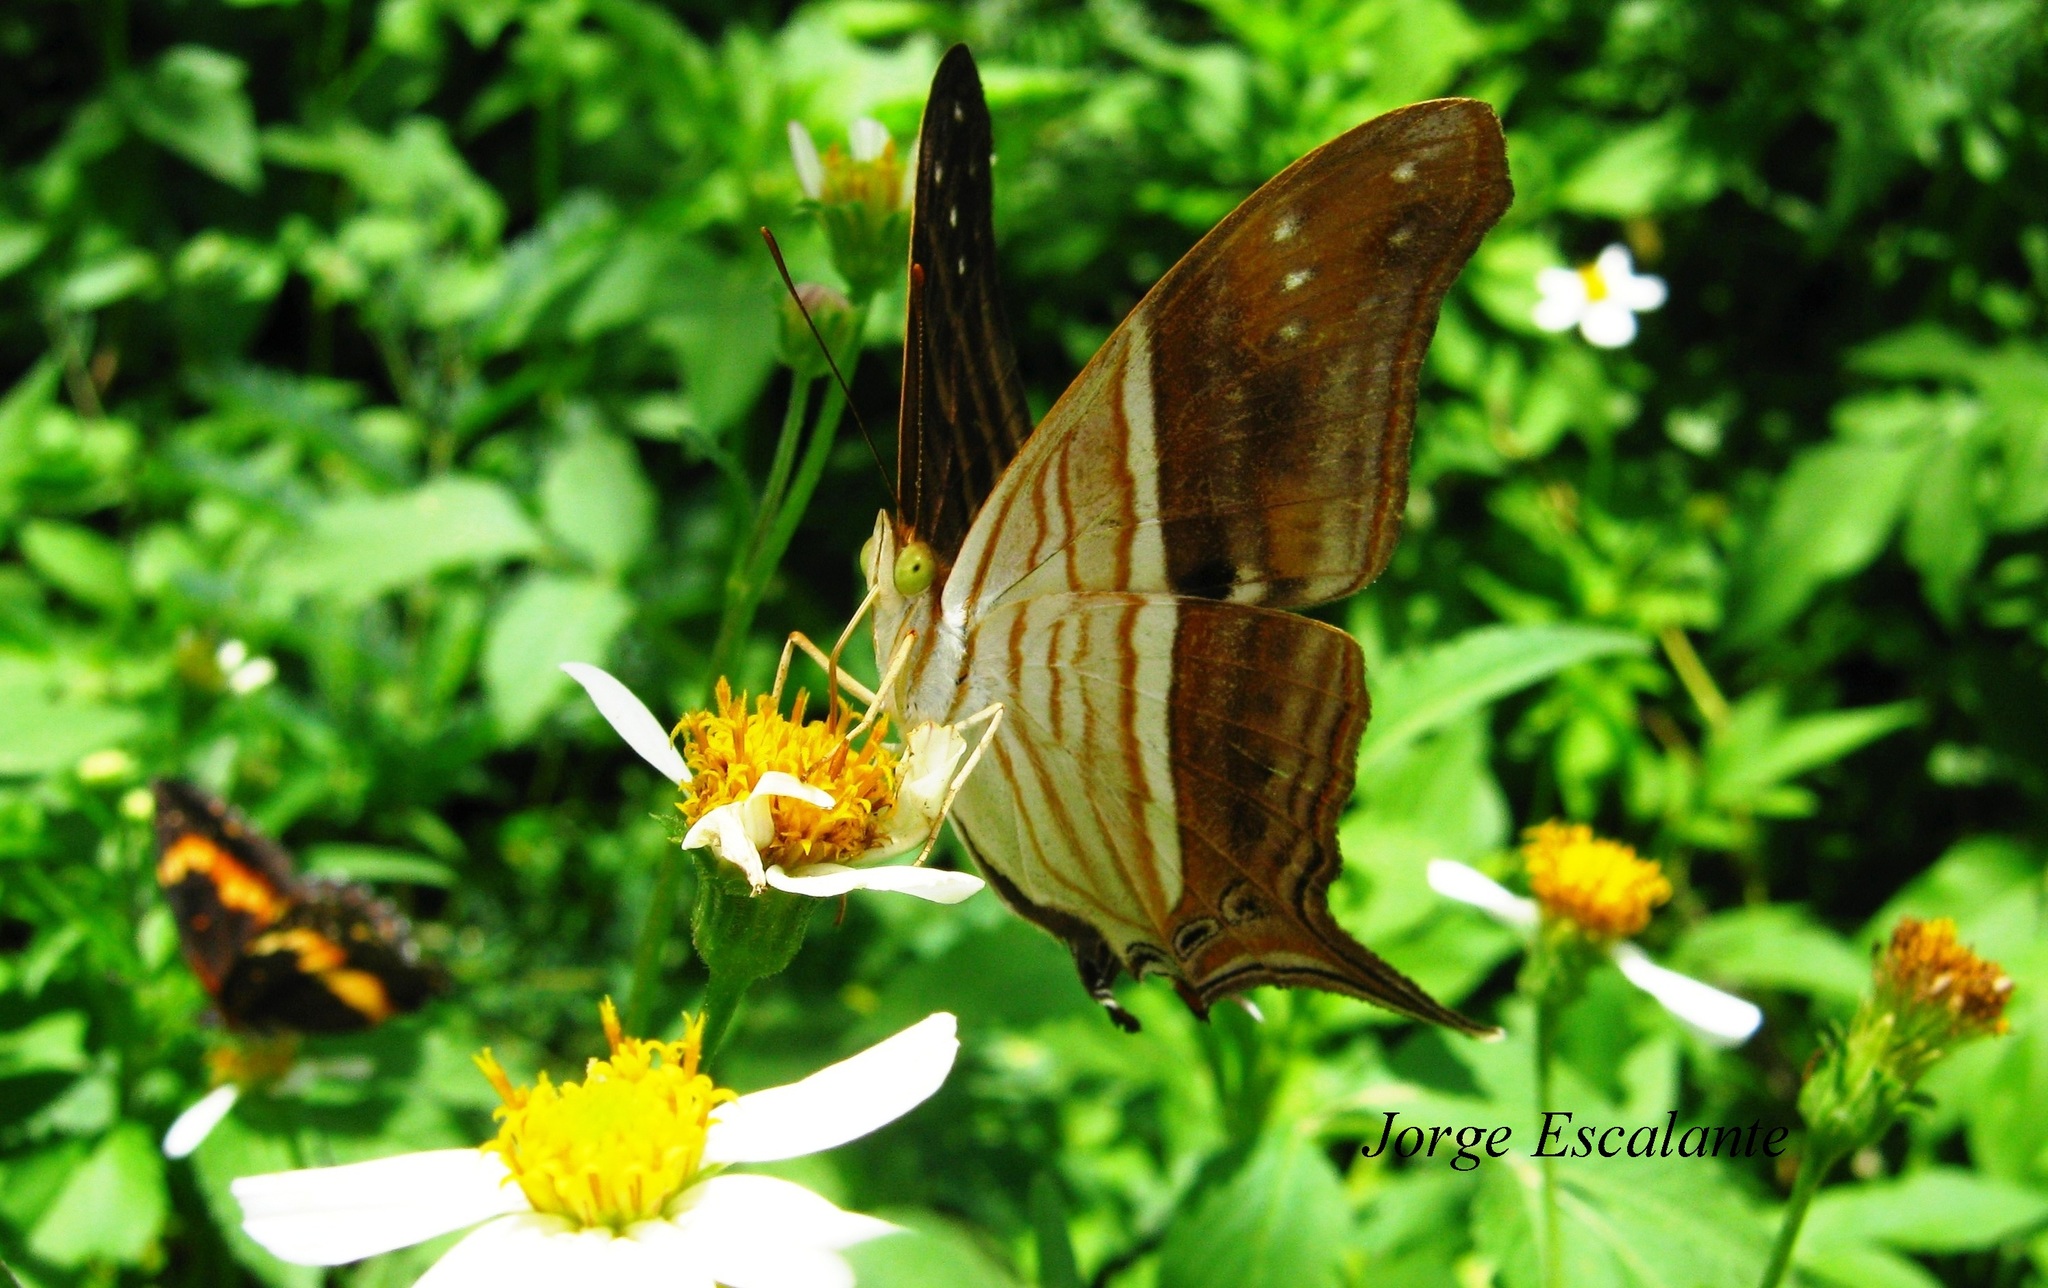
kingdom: Animalia
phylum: Arthropoda
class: Insecta
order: Lepidoptera
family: Nymphalidae
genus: Marpesia
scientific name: Marpesia chiron
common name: Many-banded daggerwing
